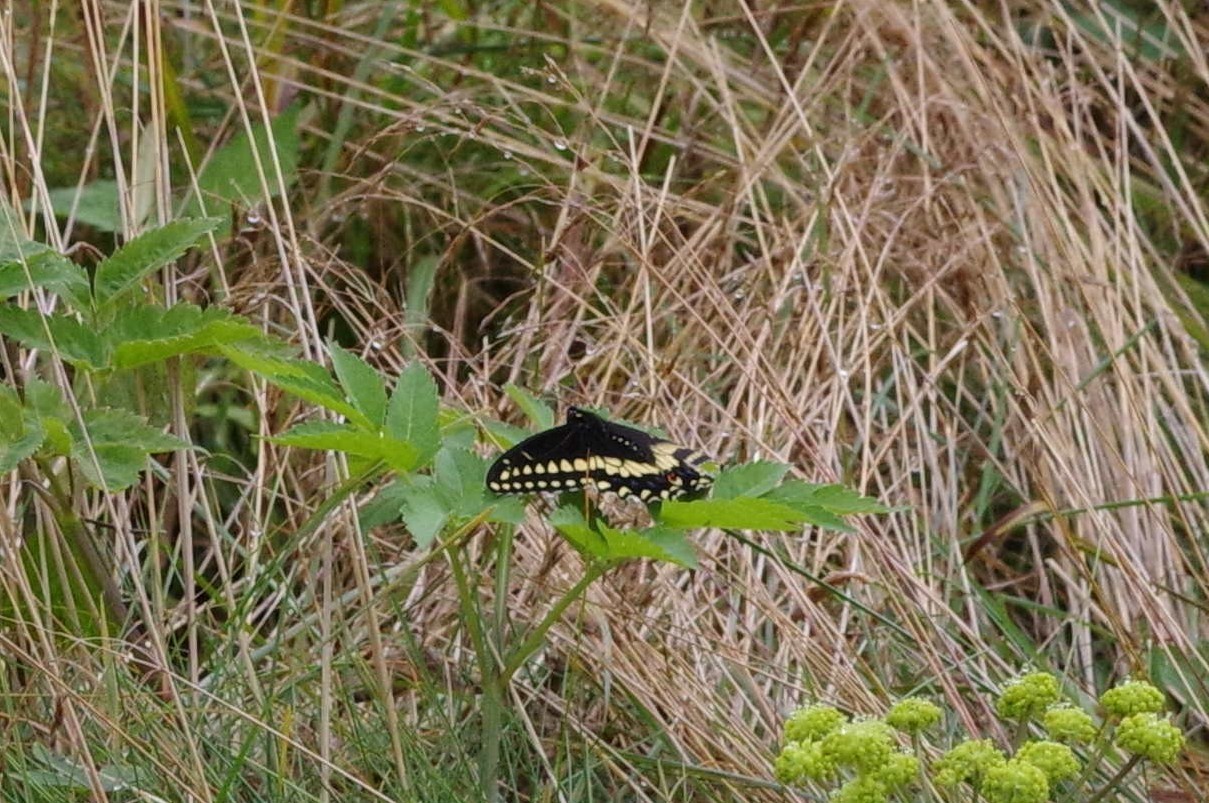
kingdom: Animalia
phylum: Arthropoda
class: Insecta
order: Lepidoptera
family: Papilionidae
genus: Papilio
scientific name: Papilio polyxenes
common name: Black swallowtail
